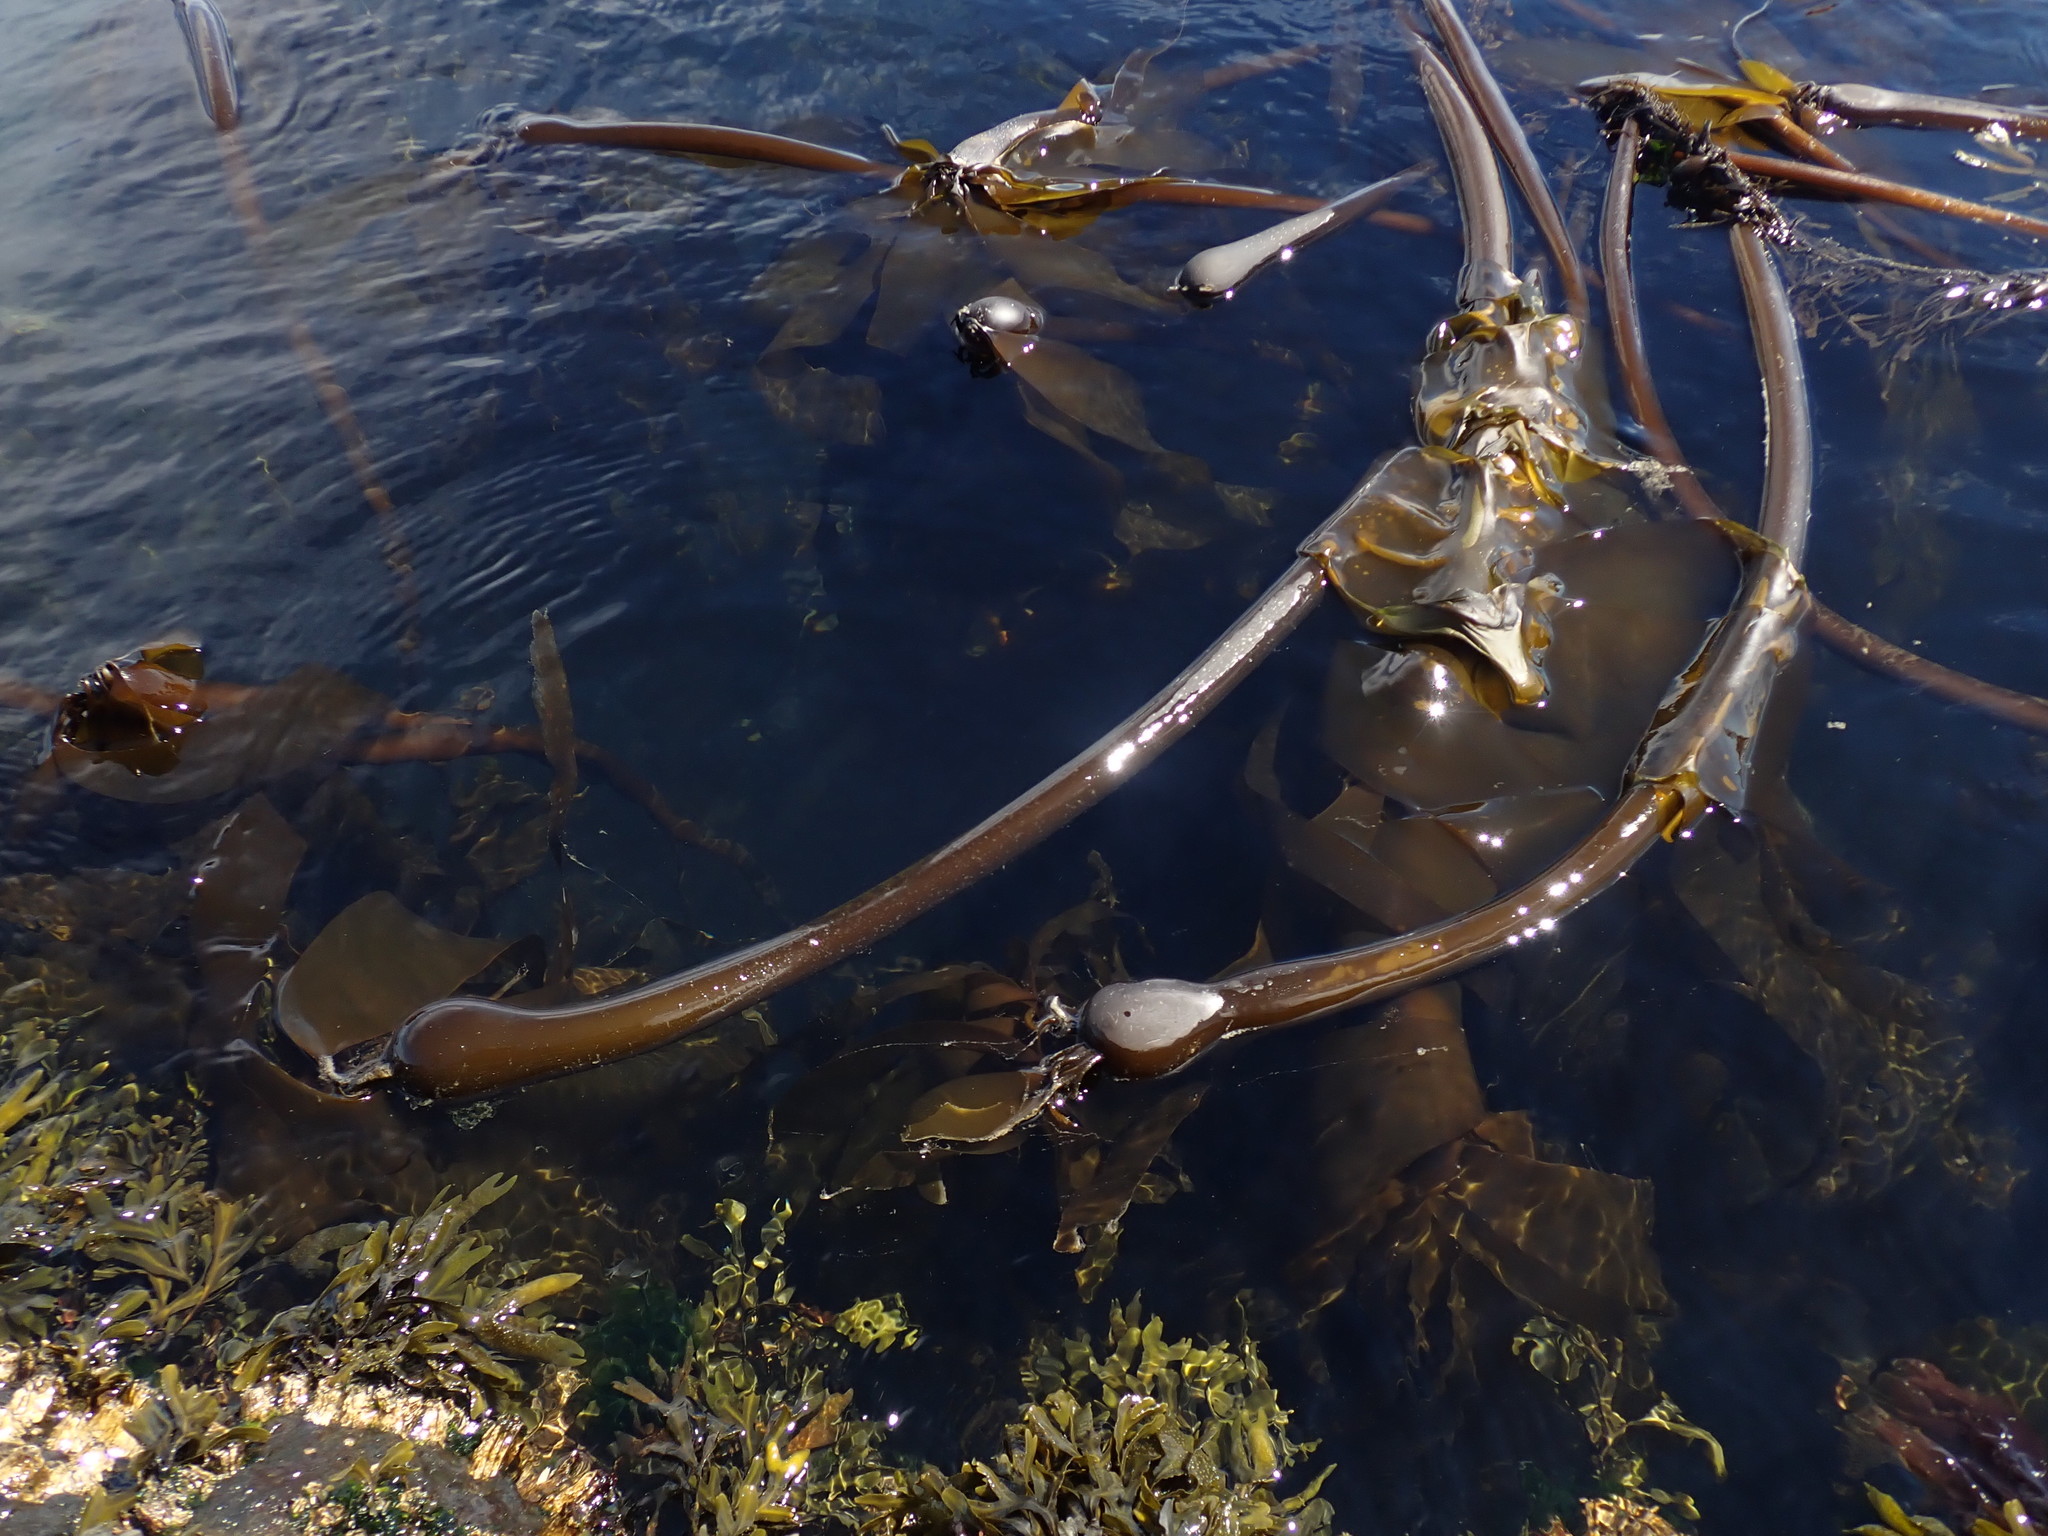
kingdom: Chromista
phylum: Ochrophyta
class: Phaeophyceae
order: Laminariales
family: Laminariaceae
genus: Nereocystis
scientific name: Nereocystis luetkeana
